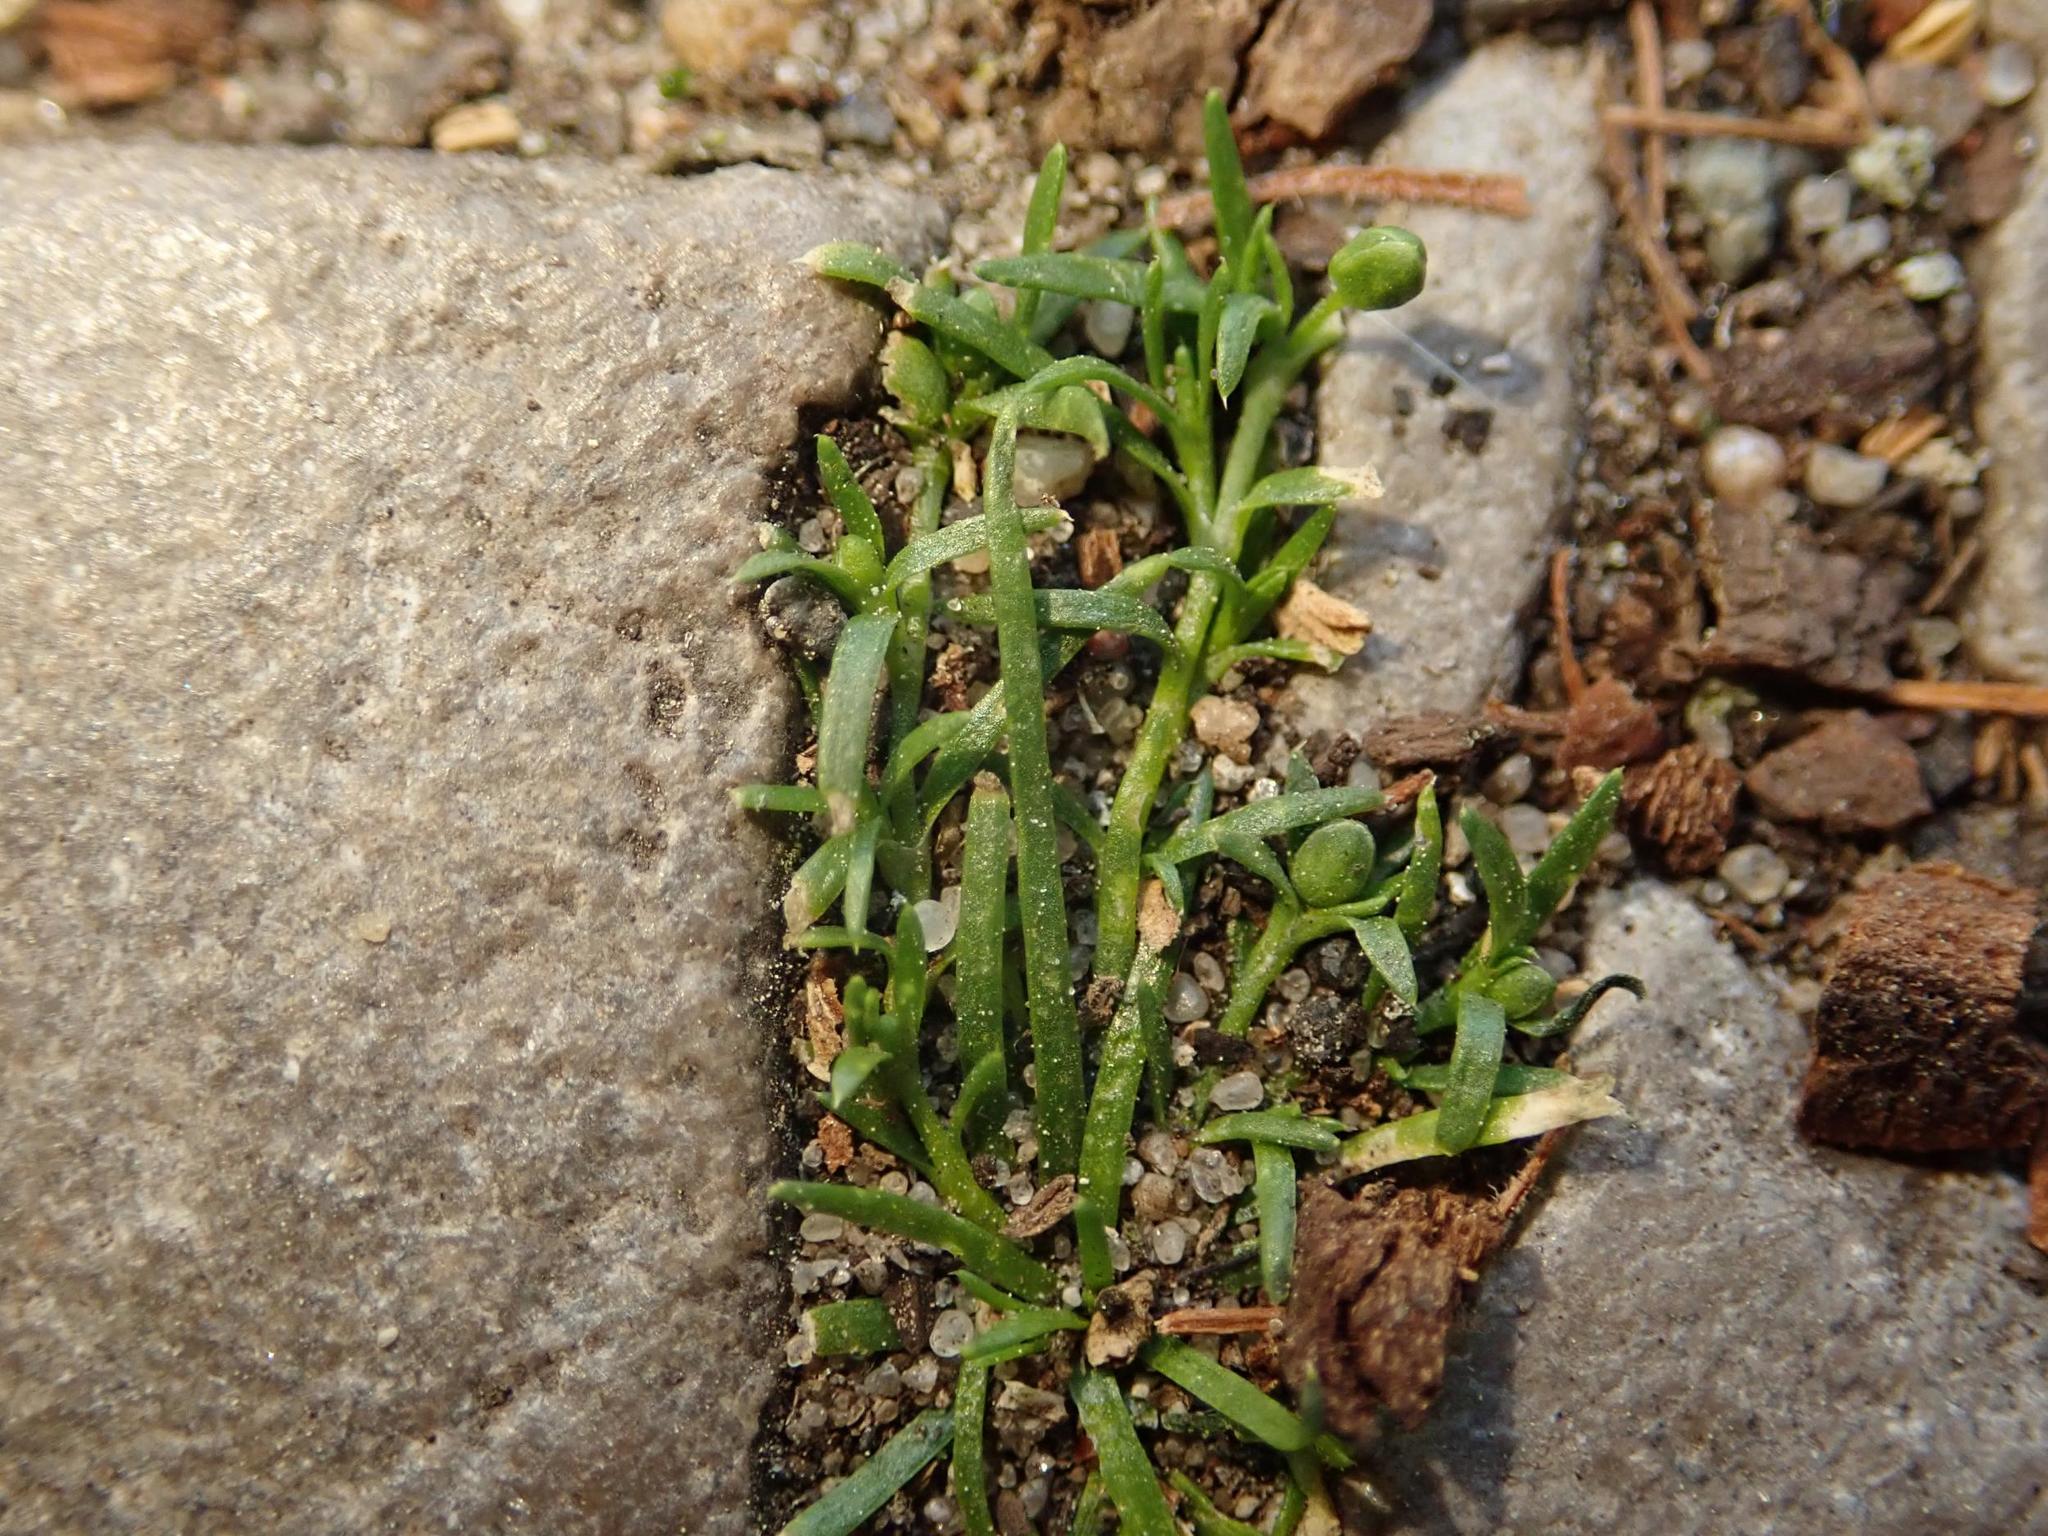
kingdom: Plantae
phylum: Tracheophyta
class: Magnoliopsida
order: Caryophyllales
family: Caryophyllaceae
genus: Sagina
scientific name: Sagina procumbens
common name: Procumbent pearlwort
